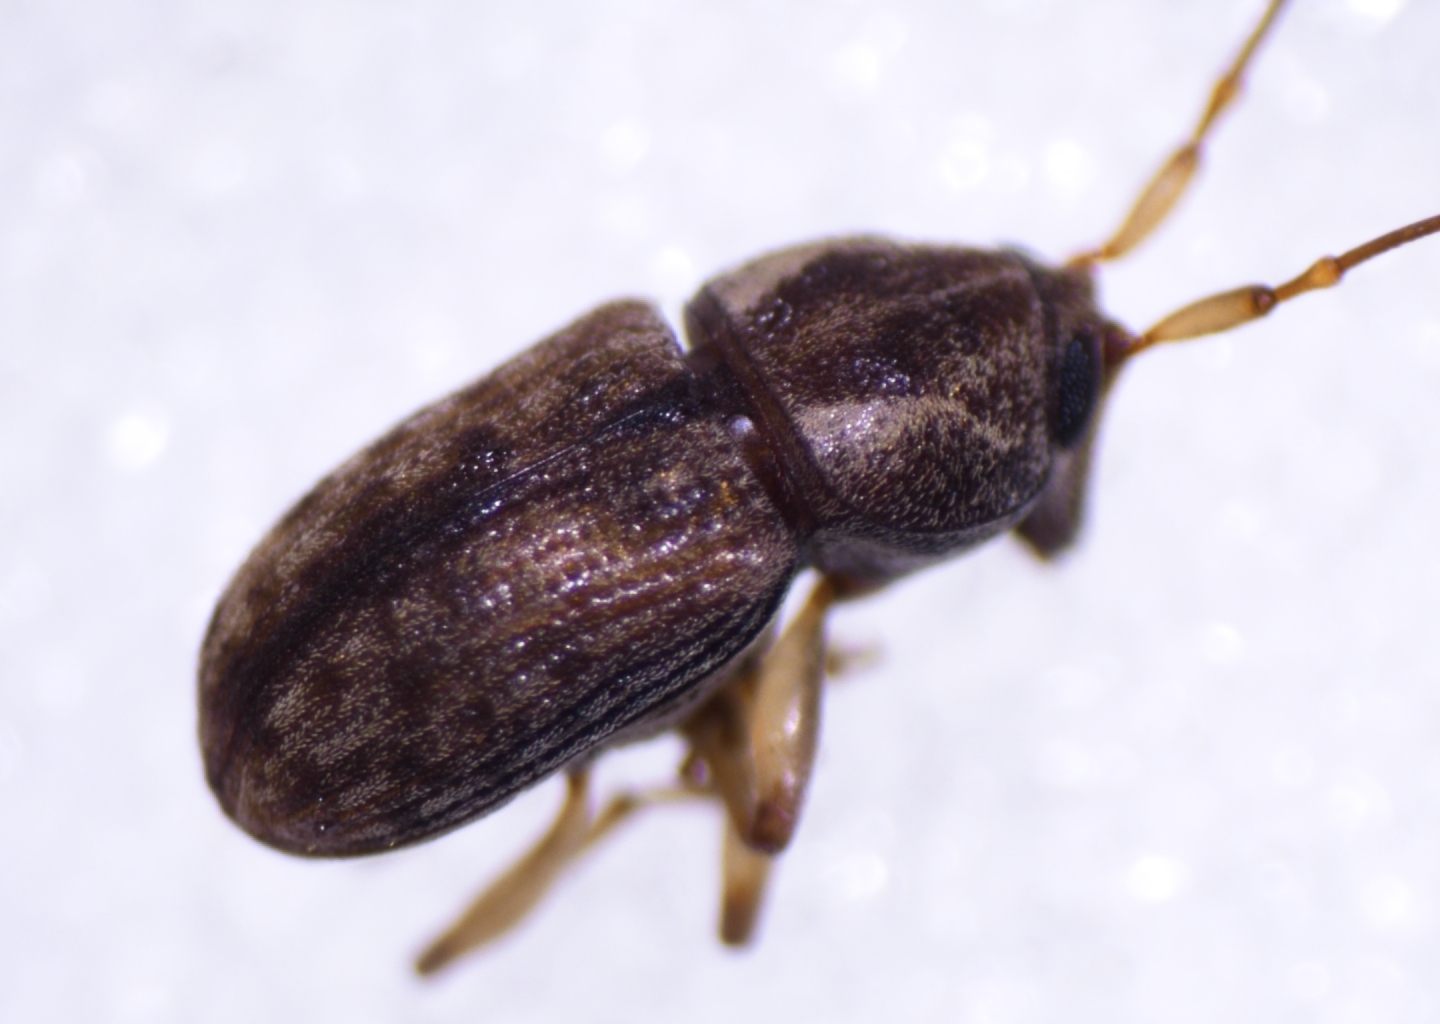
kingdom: Animalia
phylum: Arthropoda
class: Insecta
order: Coleoptera
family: Anthribidae
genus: Dinema
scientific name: Dinema filicornis
